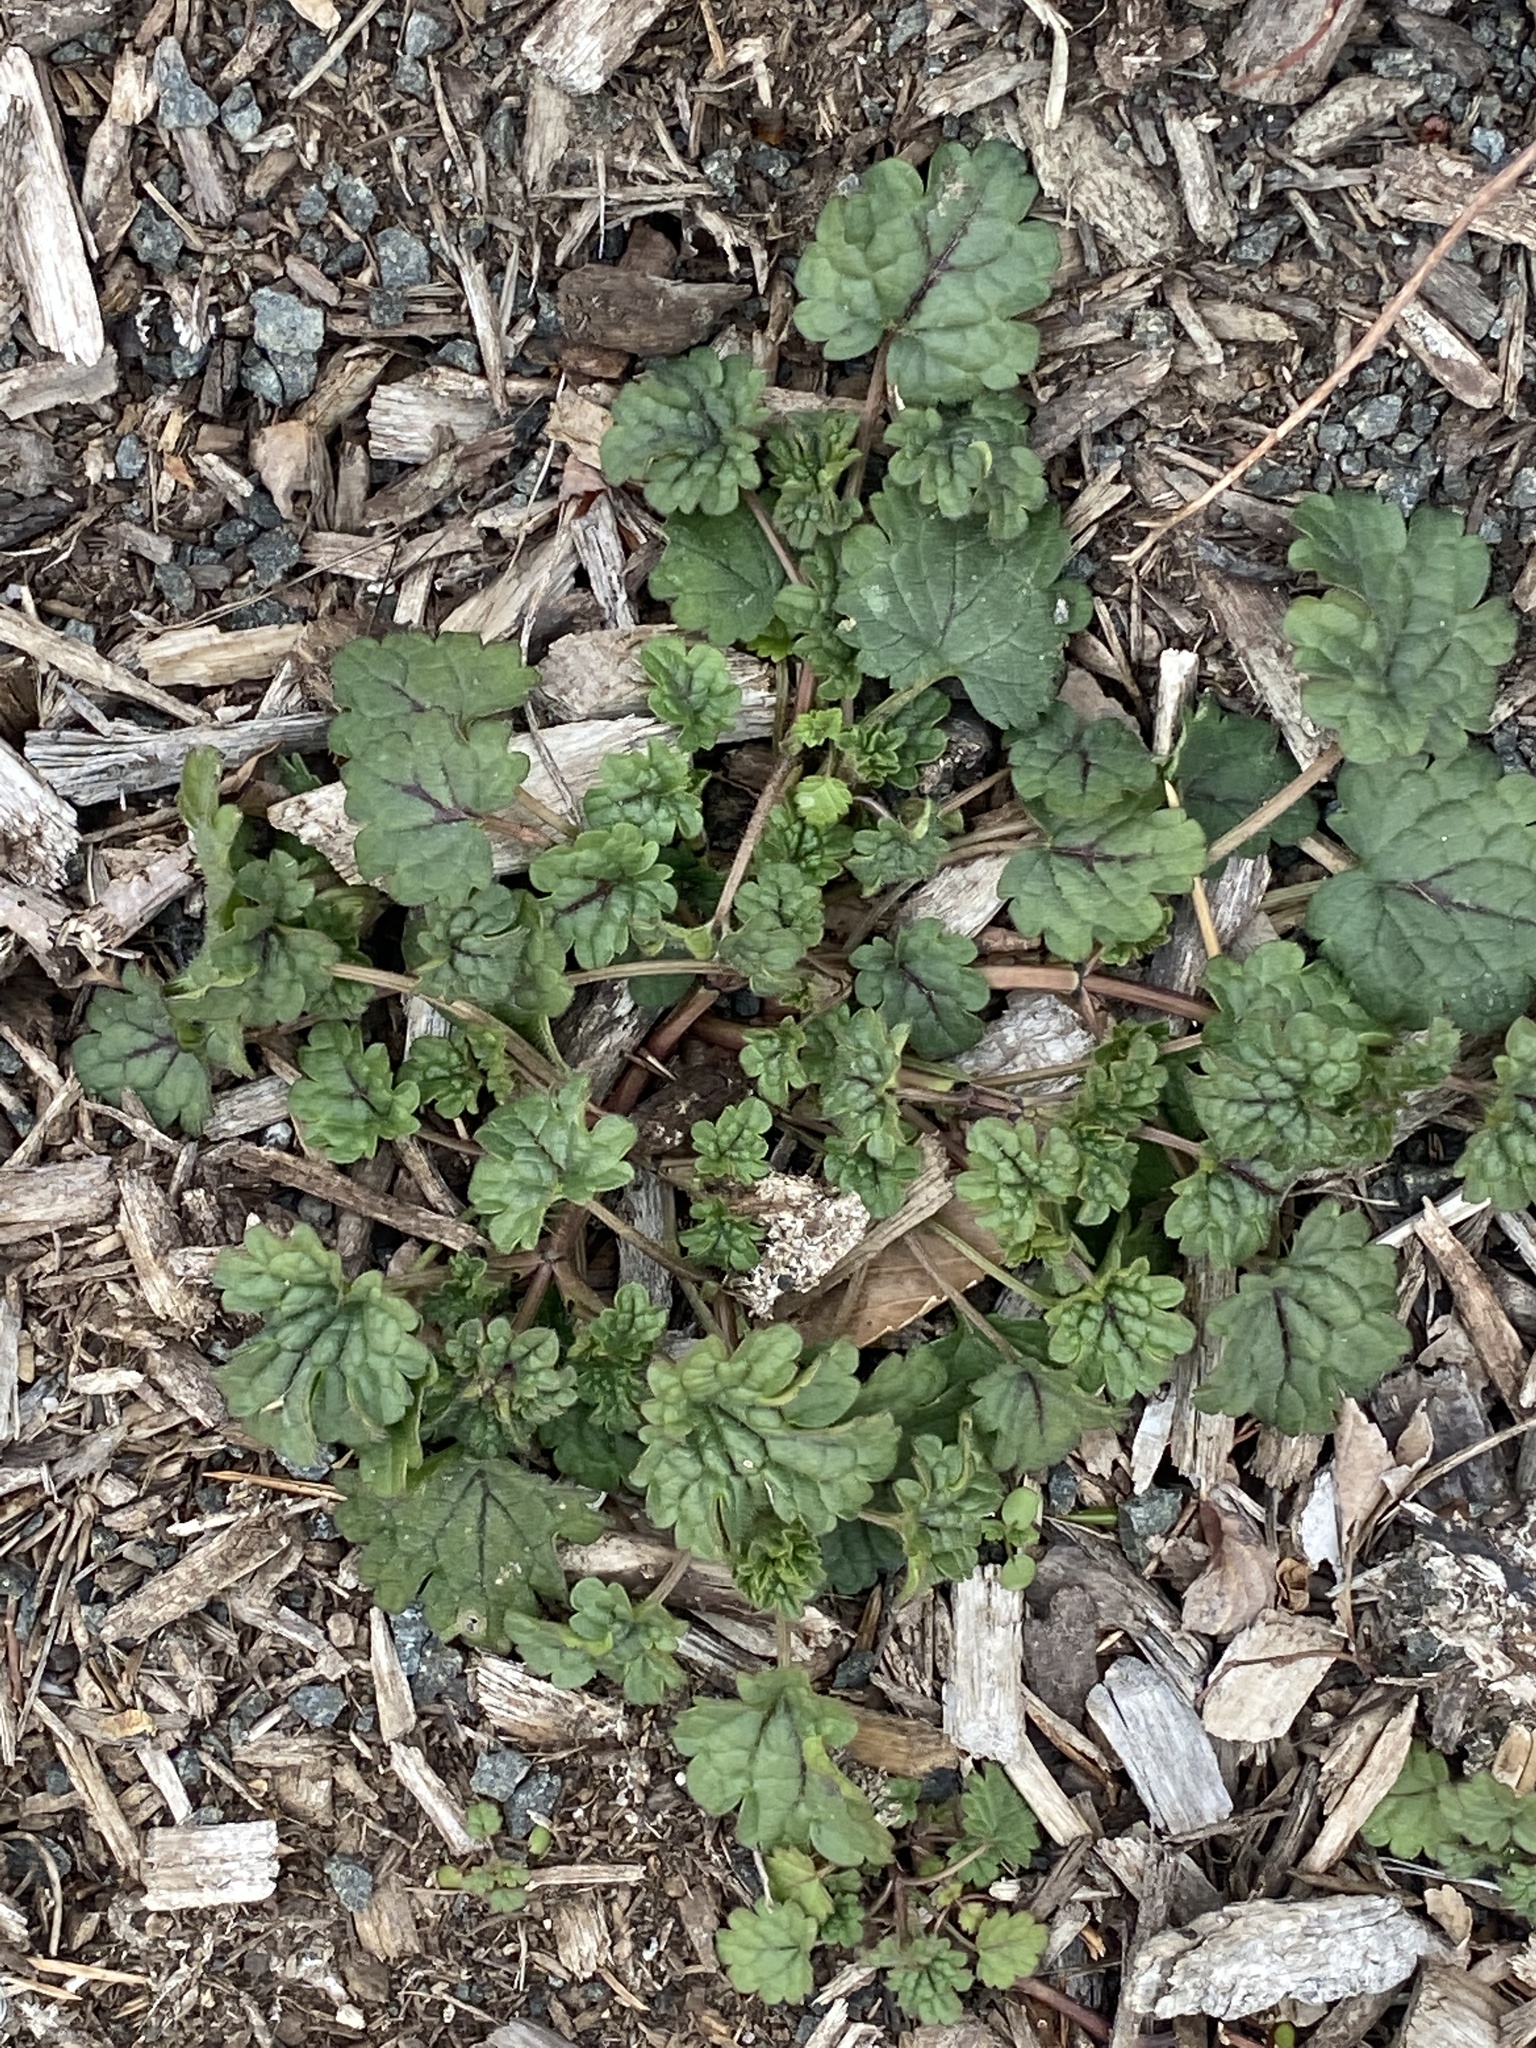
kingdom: Plantae
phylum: Tracheophyta
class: Magnoliopsida
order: Lamiales
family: Lamiaceae
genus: Lamium
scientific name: Lamium amplexicaule
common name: Henbit dead-nettle
